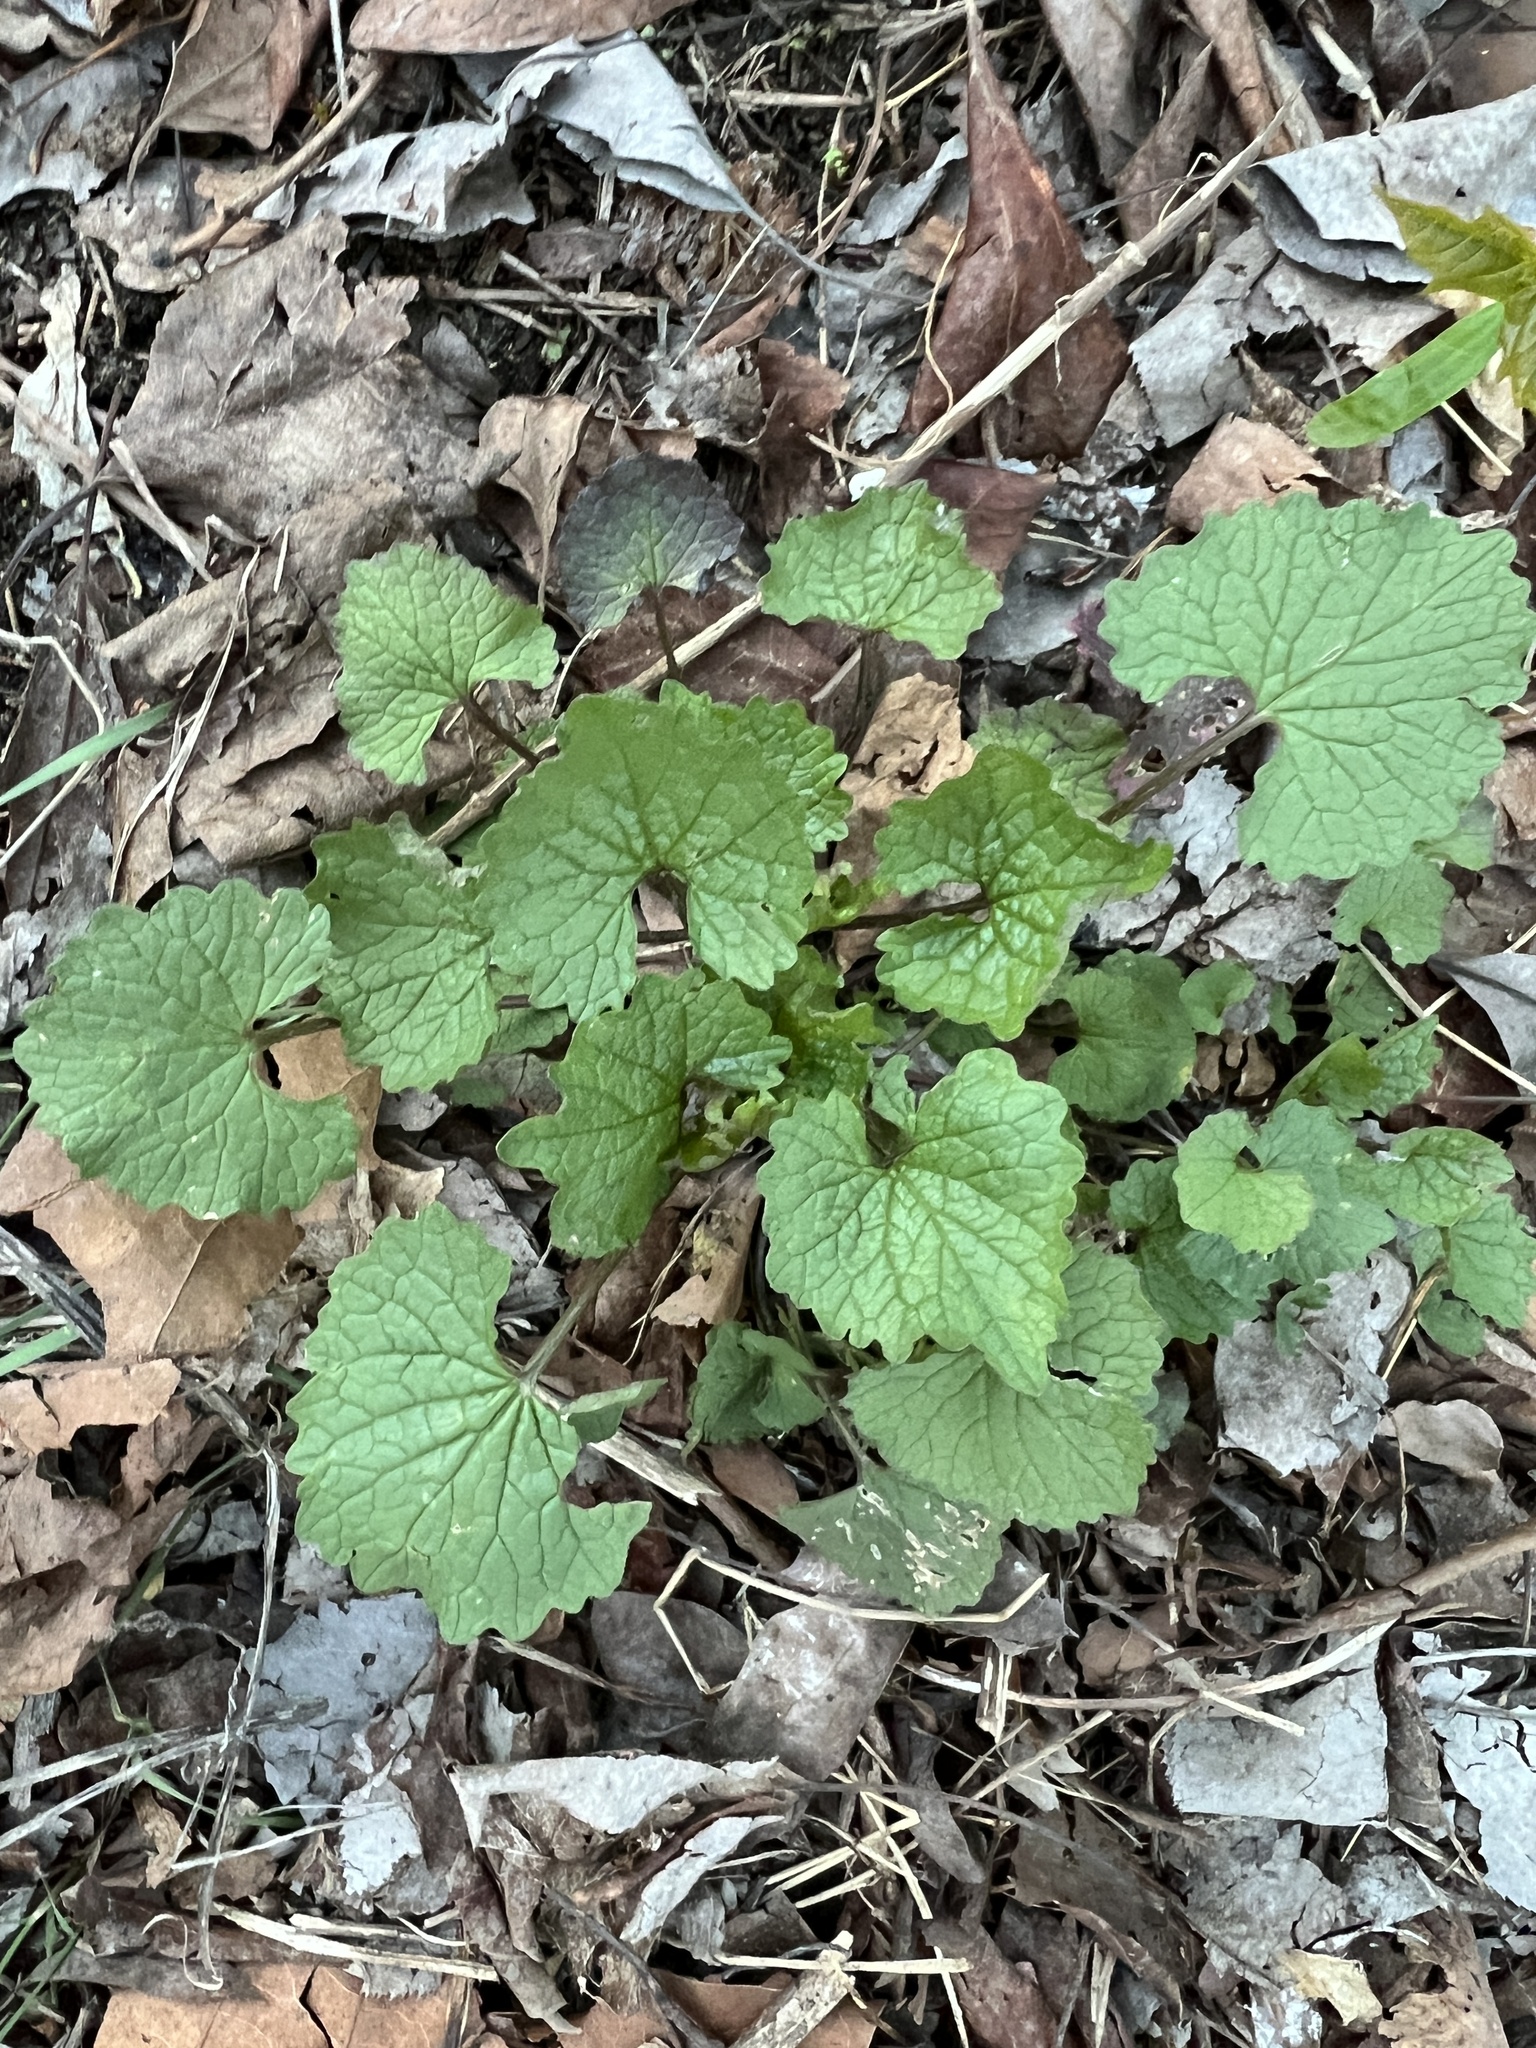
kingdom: Plantae
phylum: Tracheophyta
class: Magnoliopsida
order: Brassicales
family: Brassicaceae
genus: Alliaria
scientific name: Alliaria petiolata
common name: Garlic mustard
